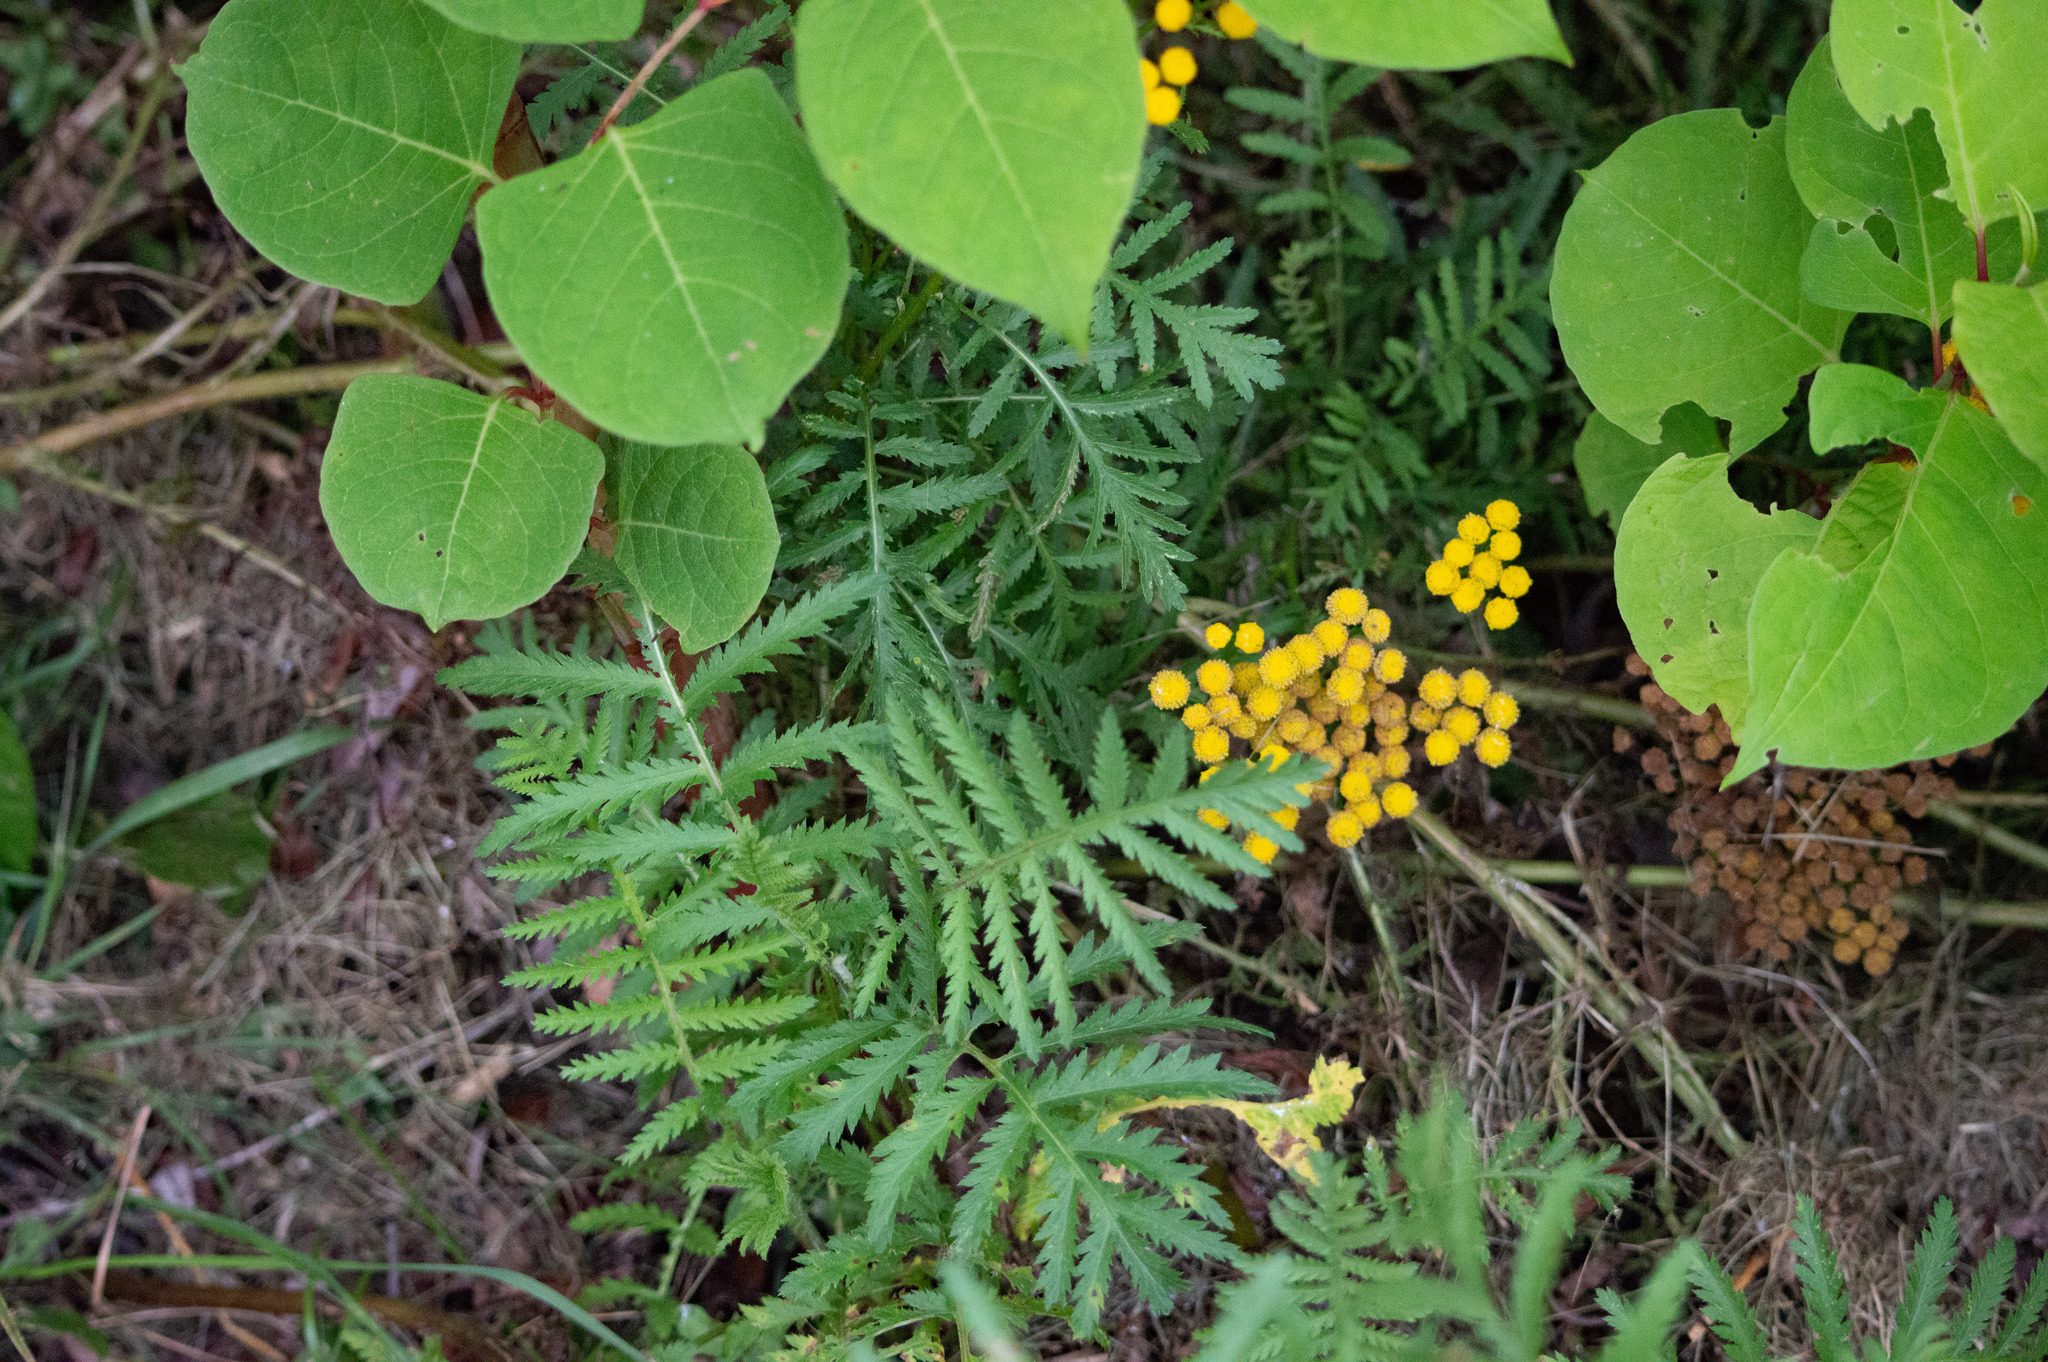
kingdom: Plantae
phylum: Tracheophyta
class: Magnoliopsida
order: Asterales
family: Asteraceae
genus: Tanacetum
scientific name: Tanacetum vulgare
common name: Common tansy
